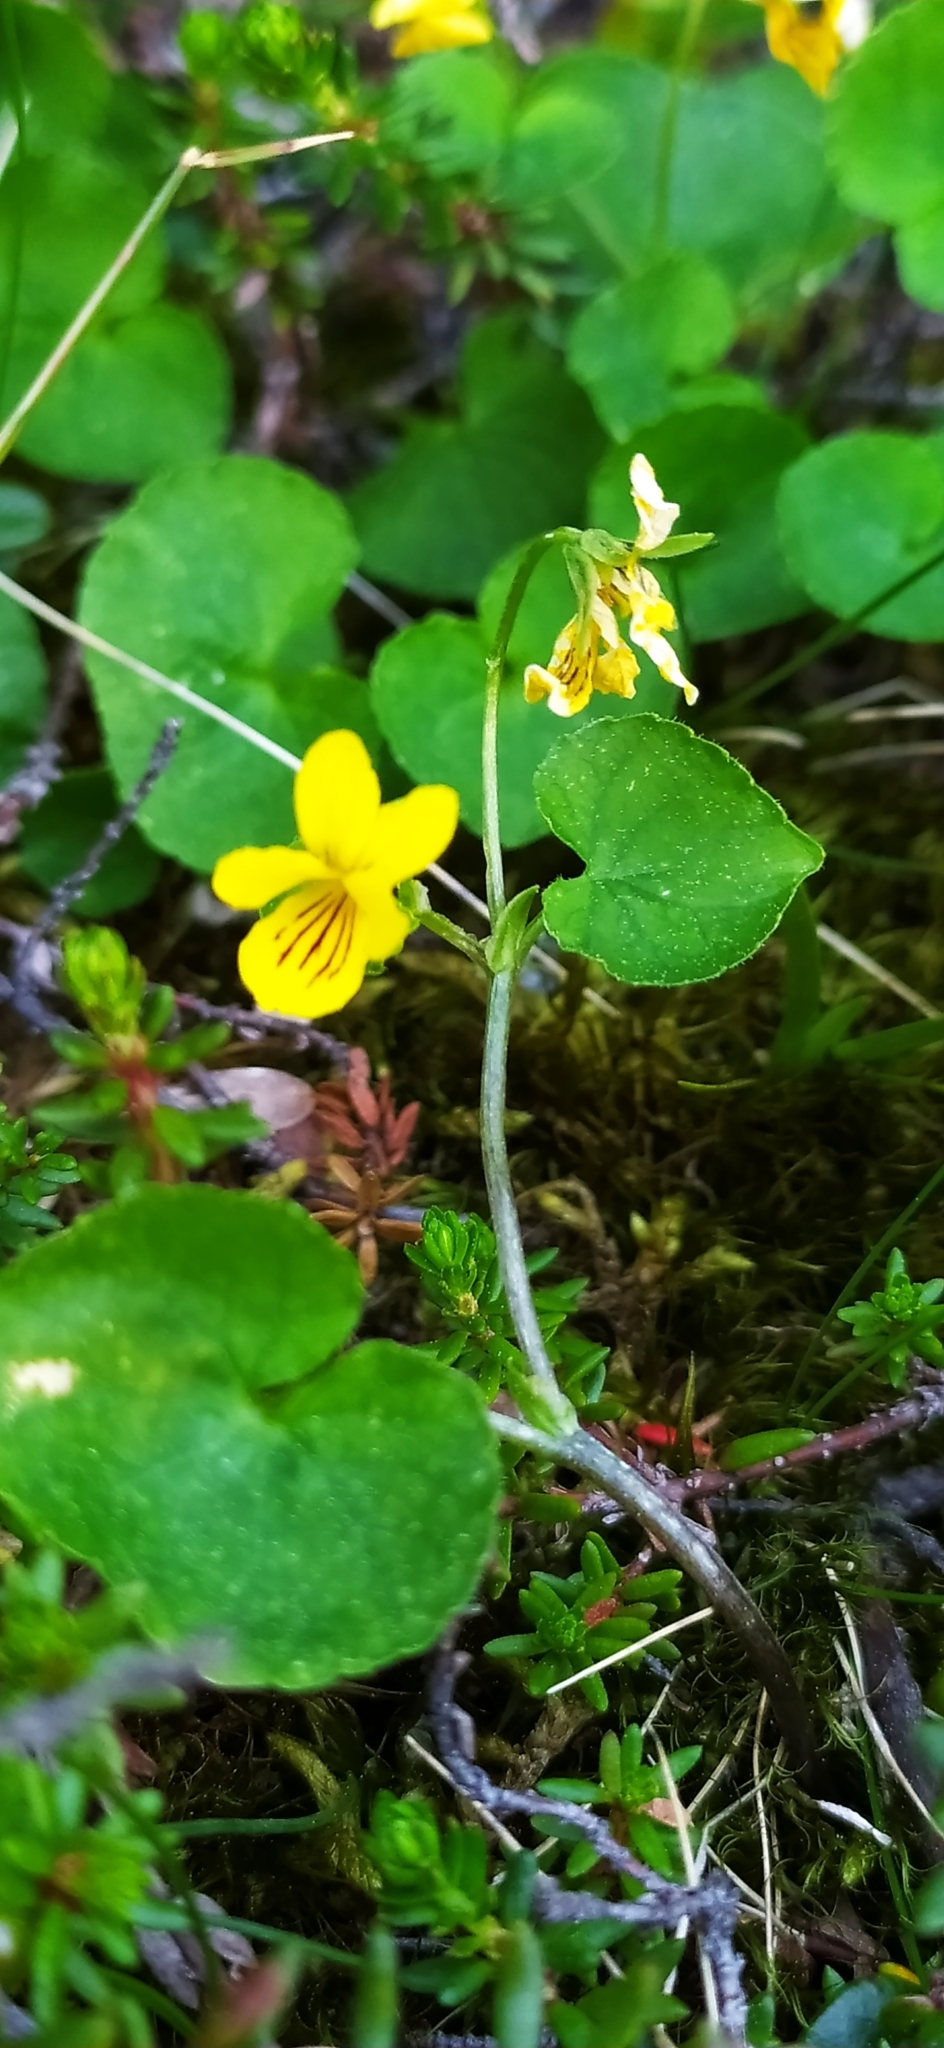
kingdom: Plantae
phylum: Tracheophyta
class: Magnoliopsida
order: Malpighiales
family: Violaceae
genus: Viola
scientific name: Viola biflora
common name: Alpine yellow violet
